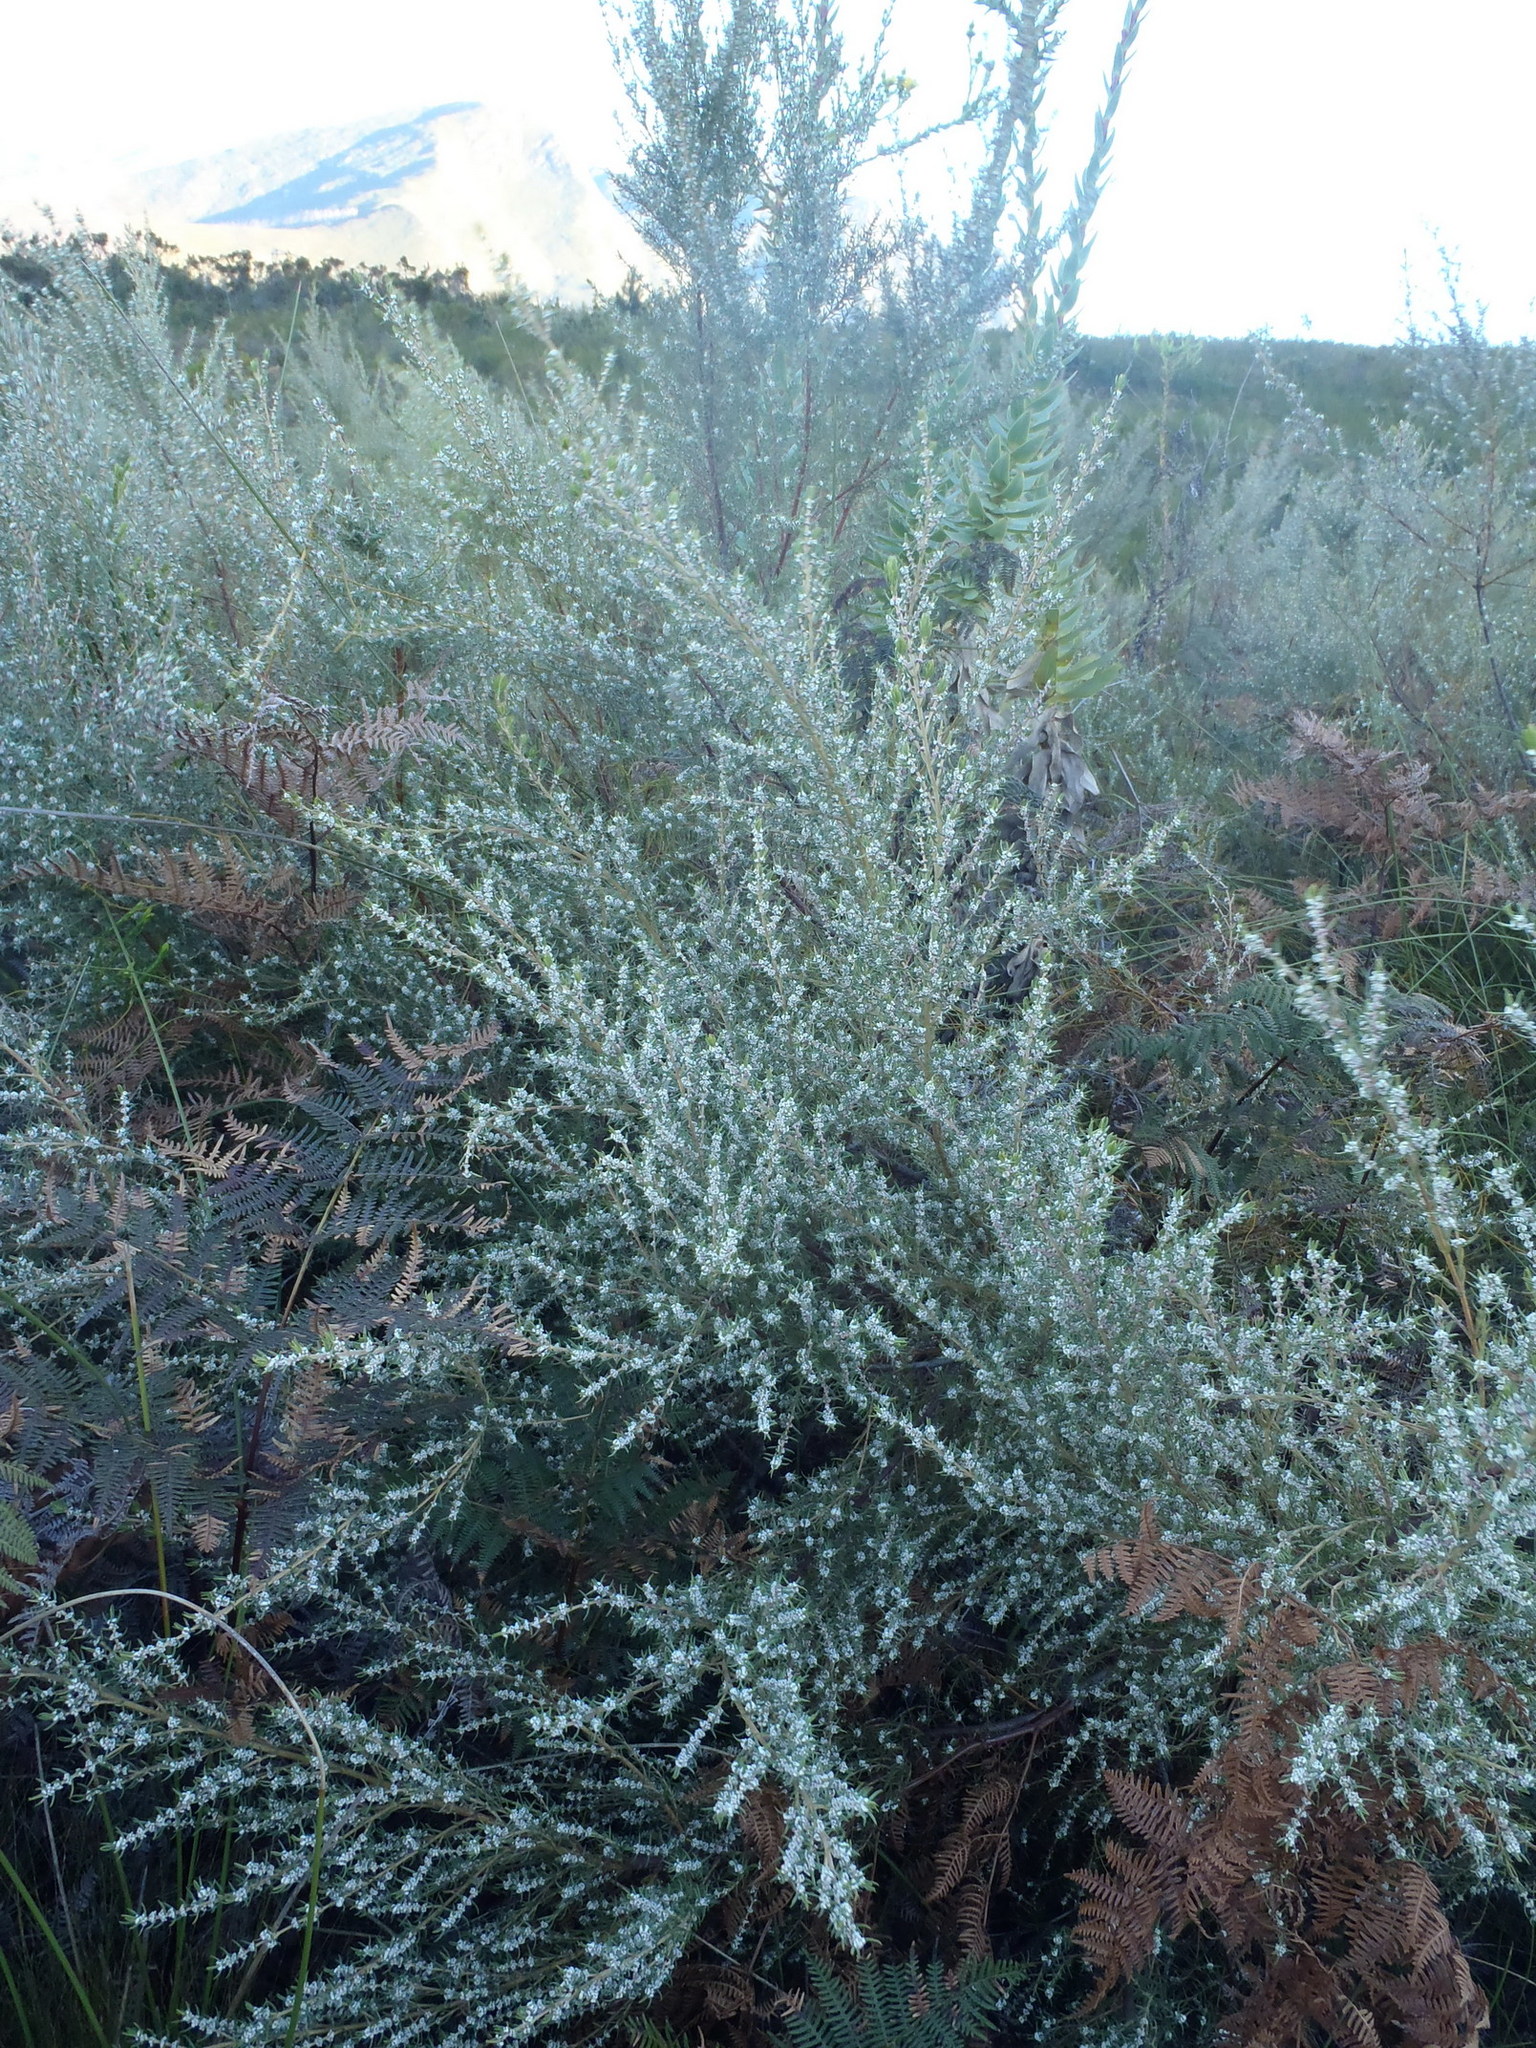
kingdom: Plantae
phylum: Tracheophyta
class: Magnoliopsida
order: Cornales
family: Grubbiaceae
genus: Grubbia
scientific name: Grubbia rosmarinifolia
